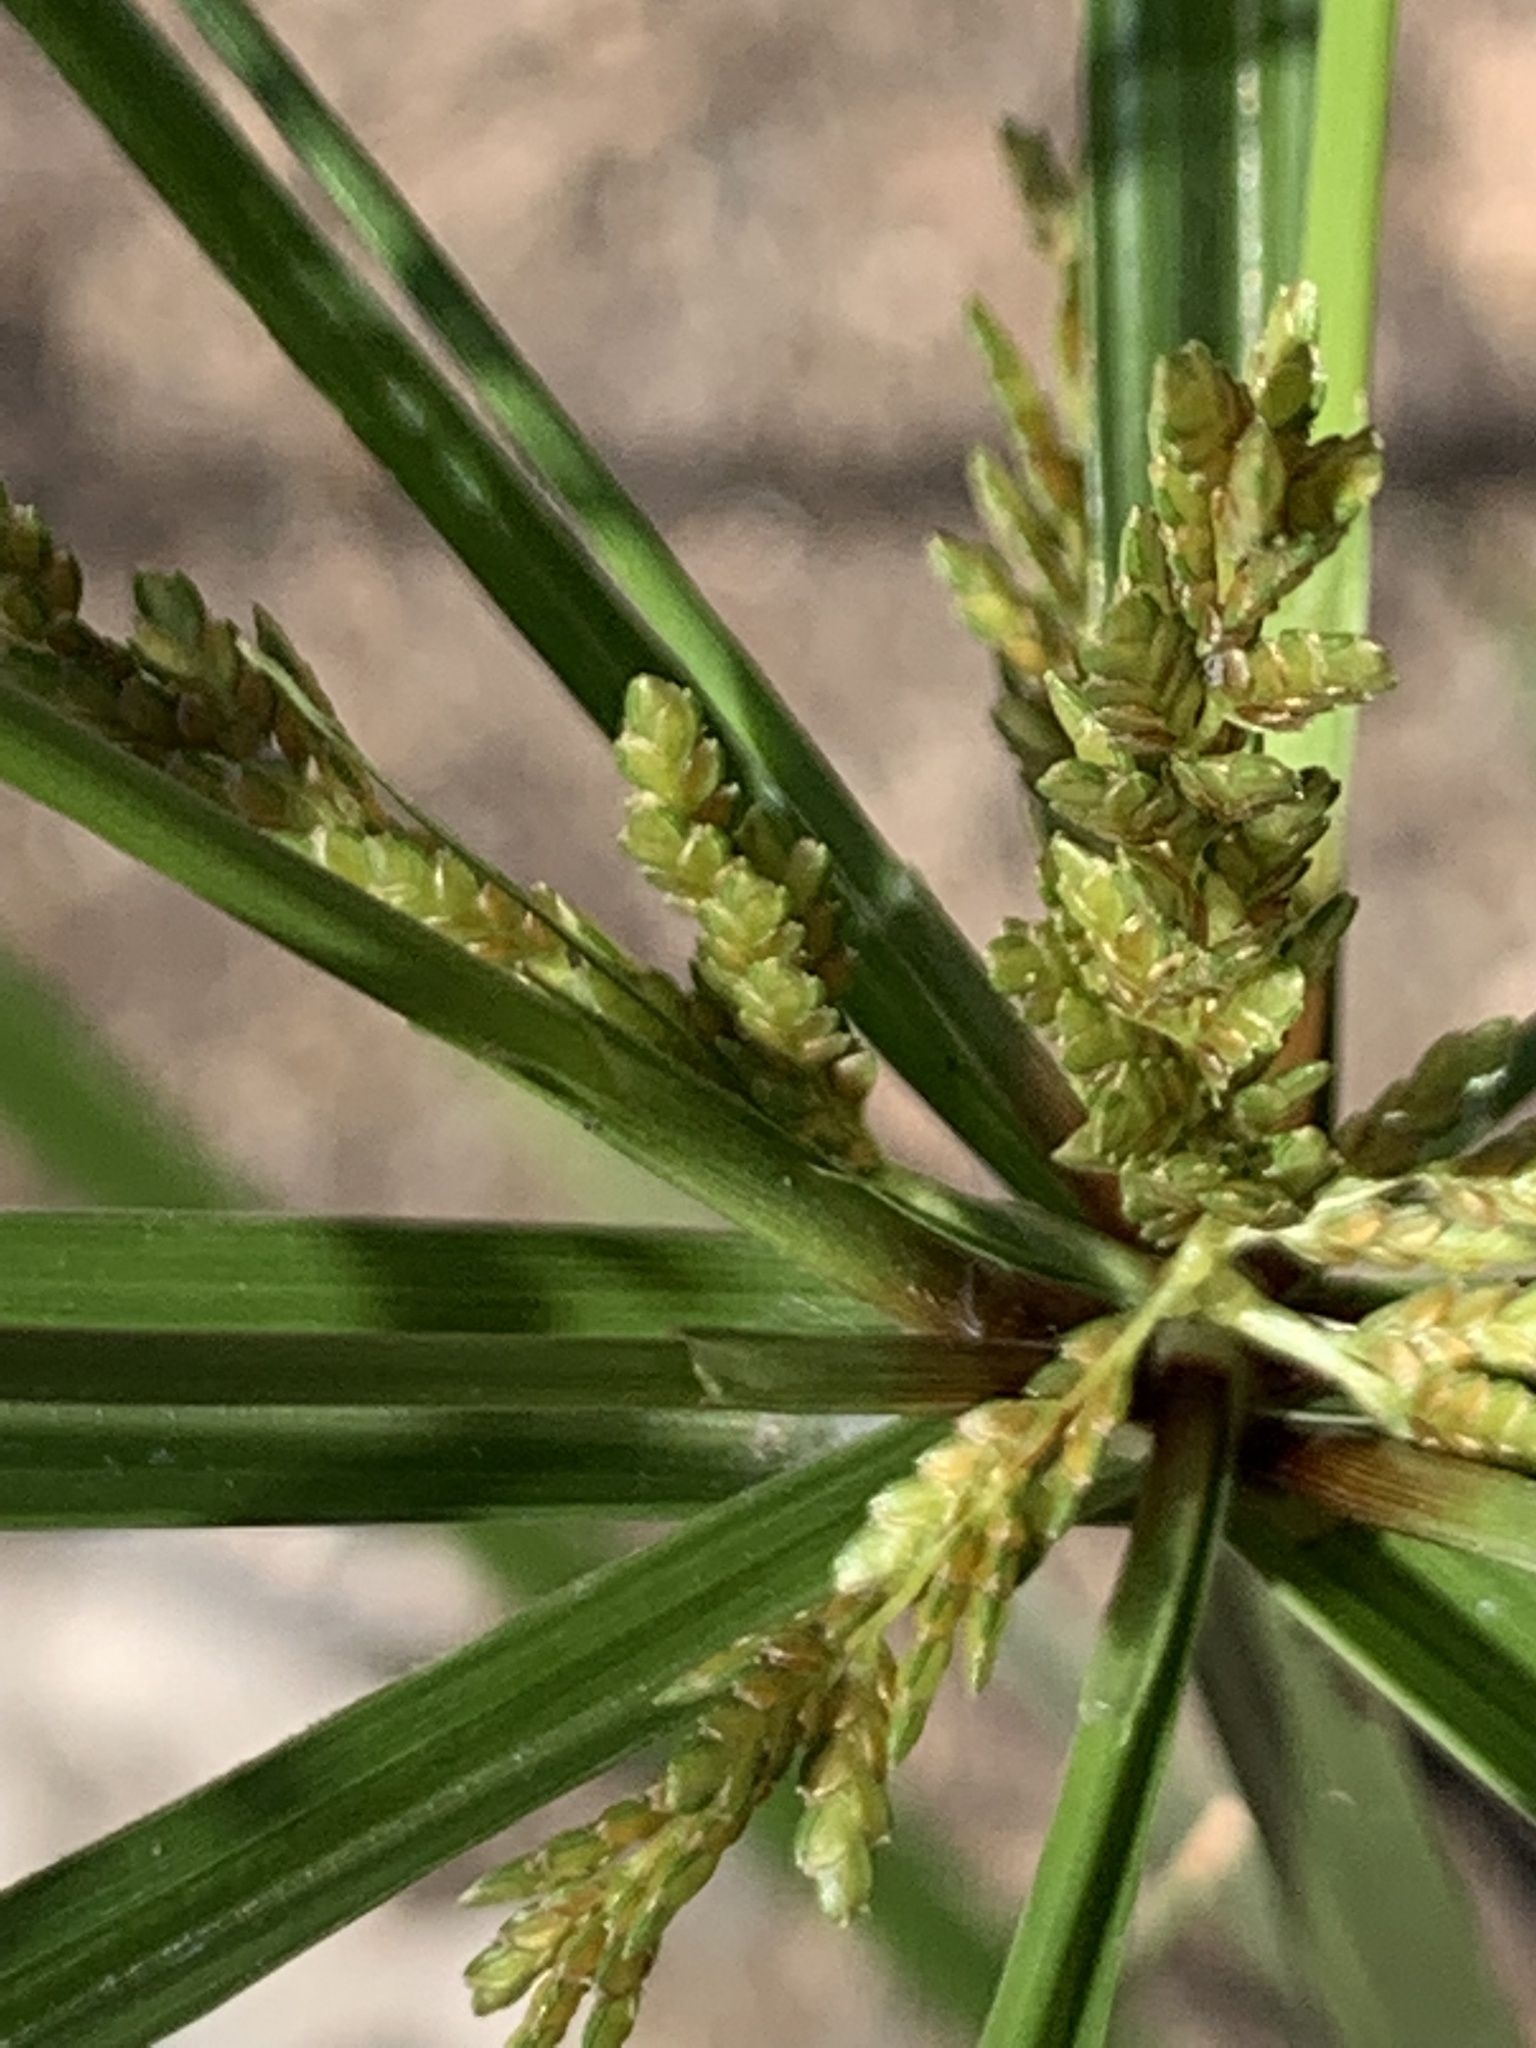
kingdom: Plantae
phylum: Tracheophyta
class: Liliopsida
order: Poales
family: Cyperaceae
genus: Cyperus
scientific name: Cyperus iria
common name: Ricefield flatsedge
